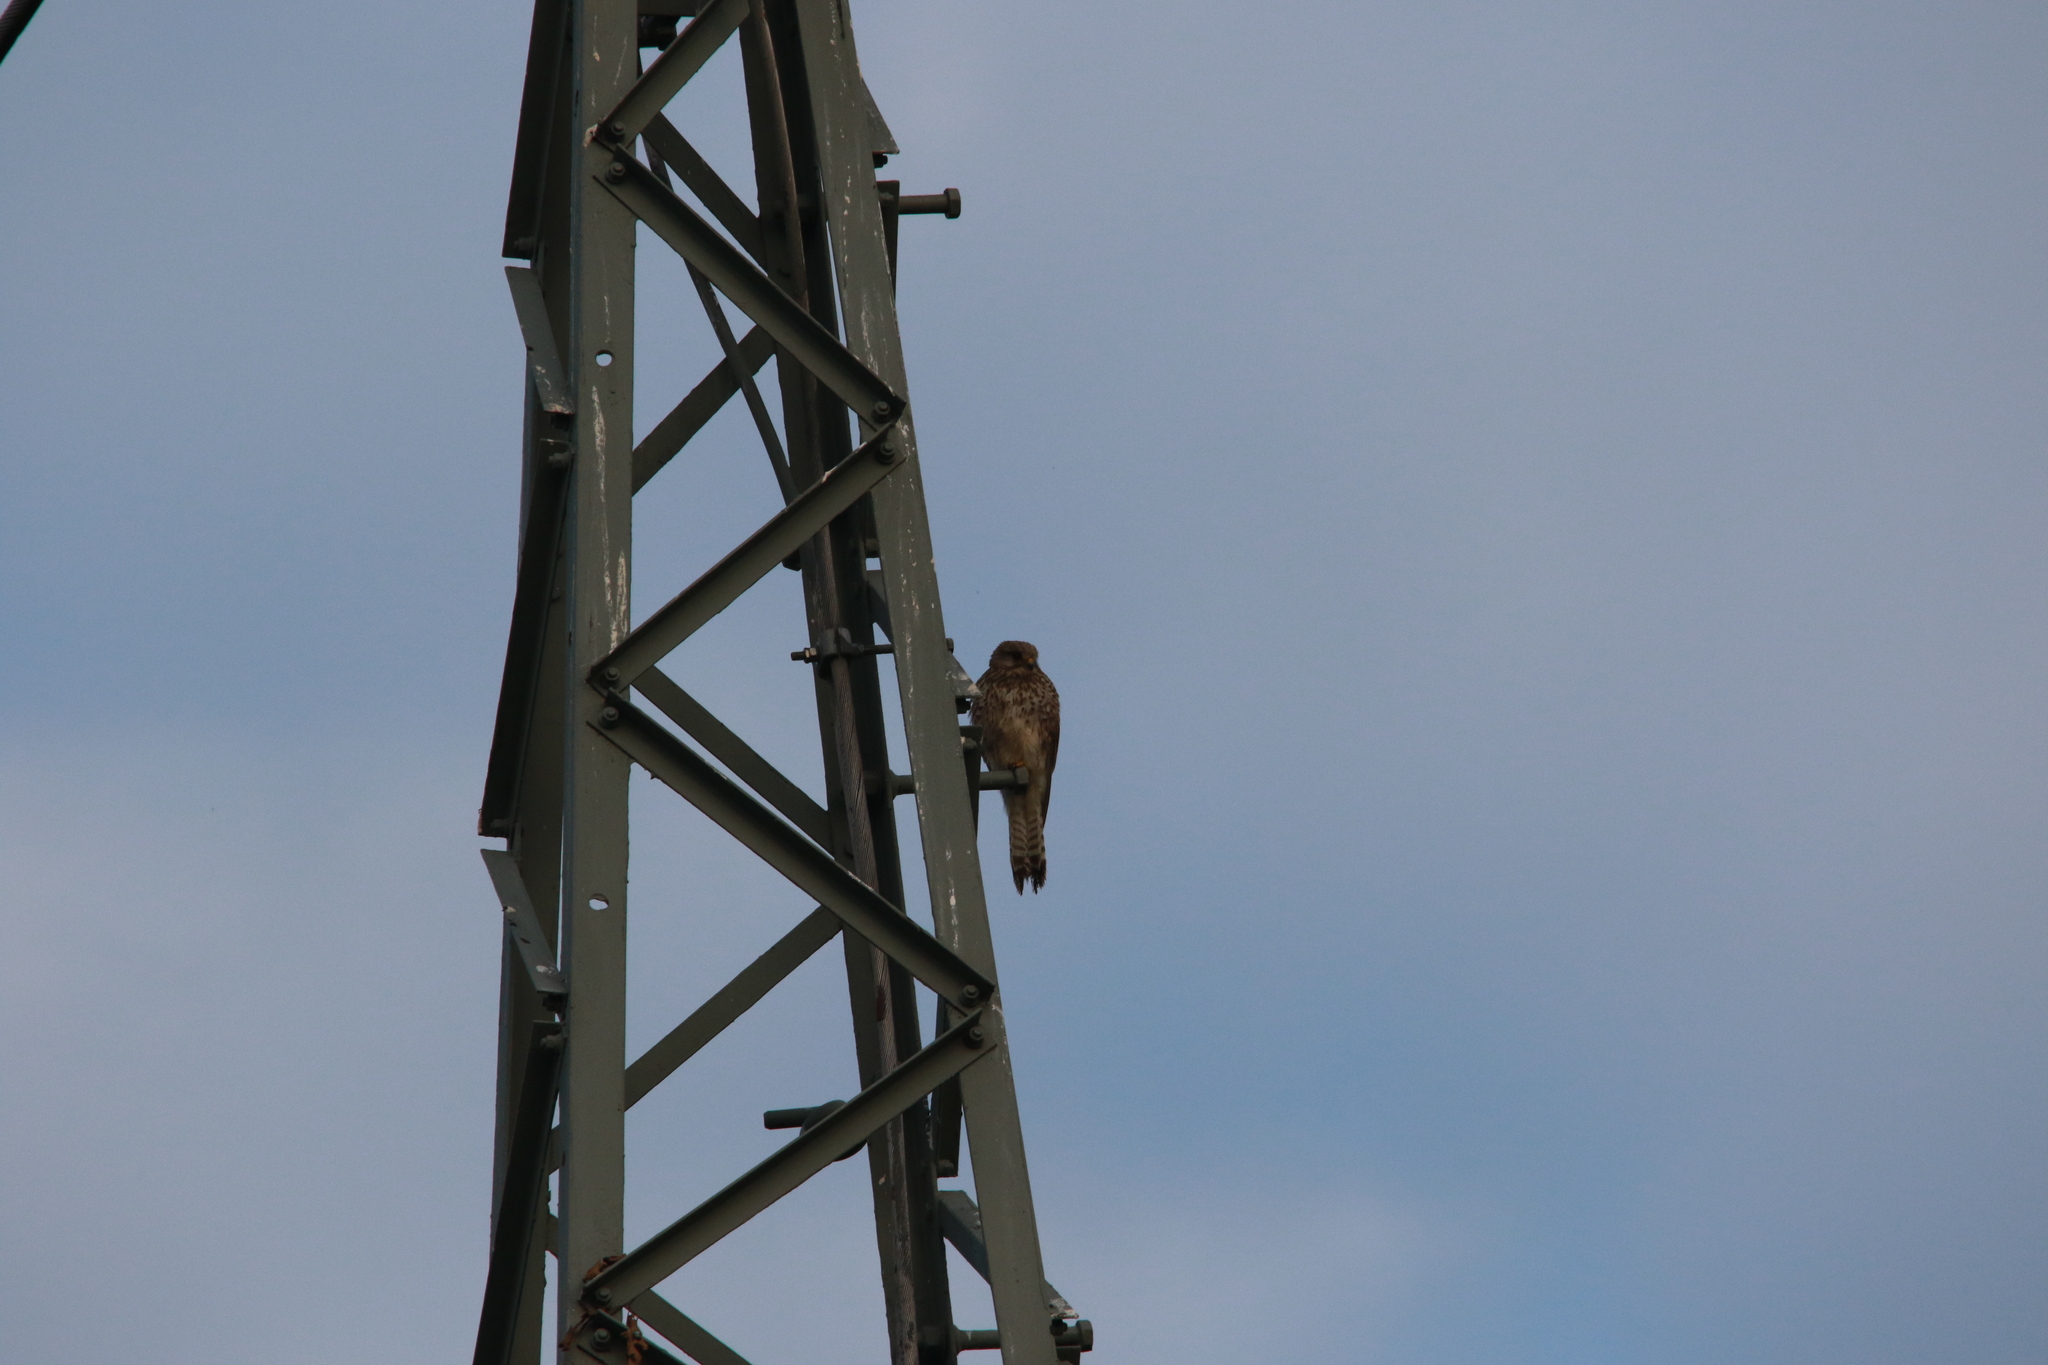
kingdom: Animalia
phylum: Chordata
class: Aves
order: Falconiformes
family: Falconidae
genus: Falco
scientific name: Falco tinnunculus
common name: Common kestrel
